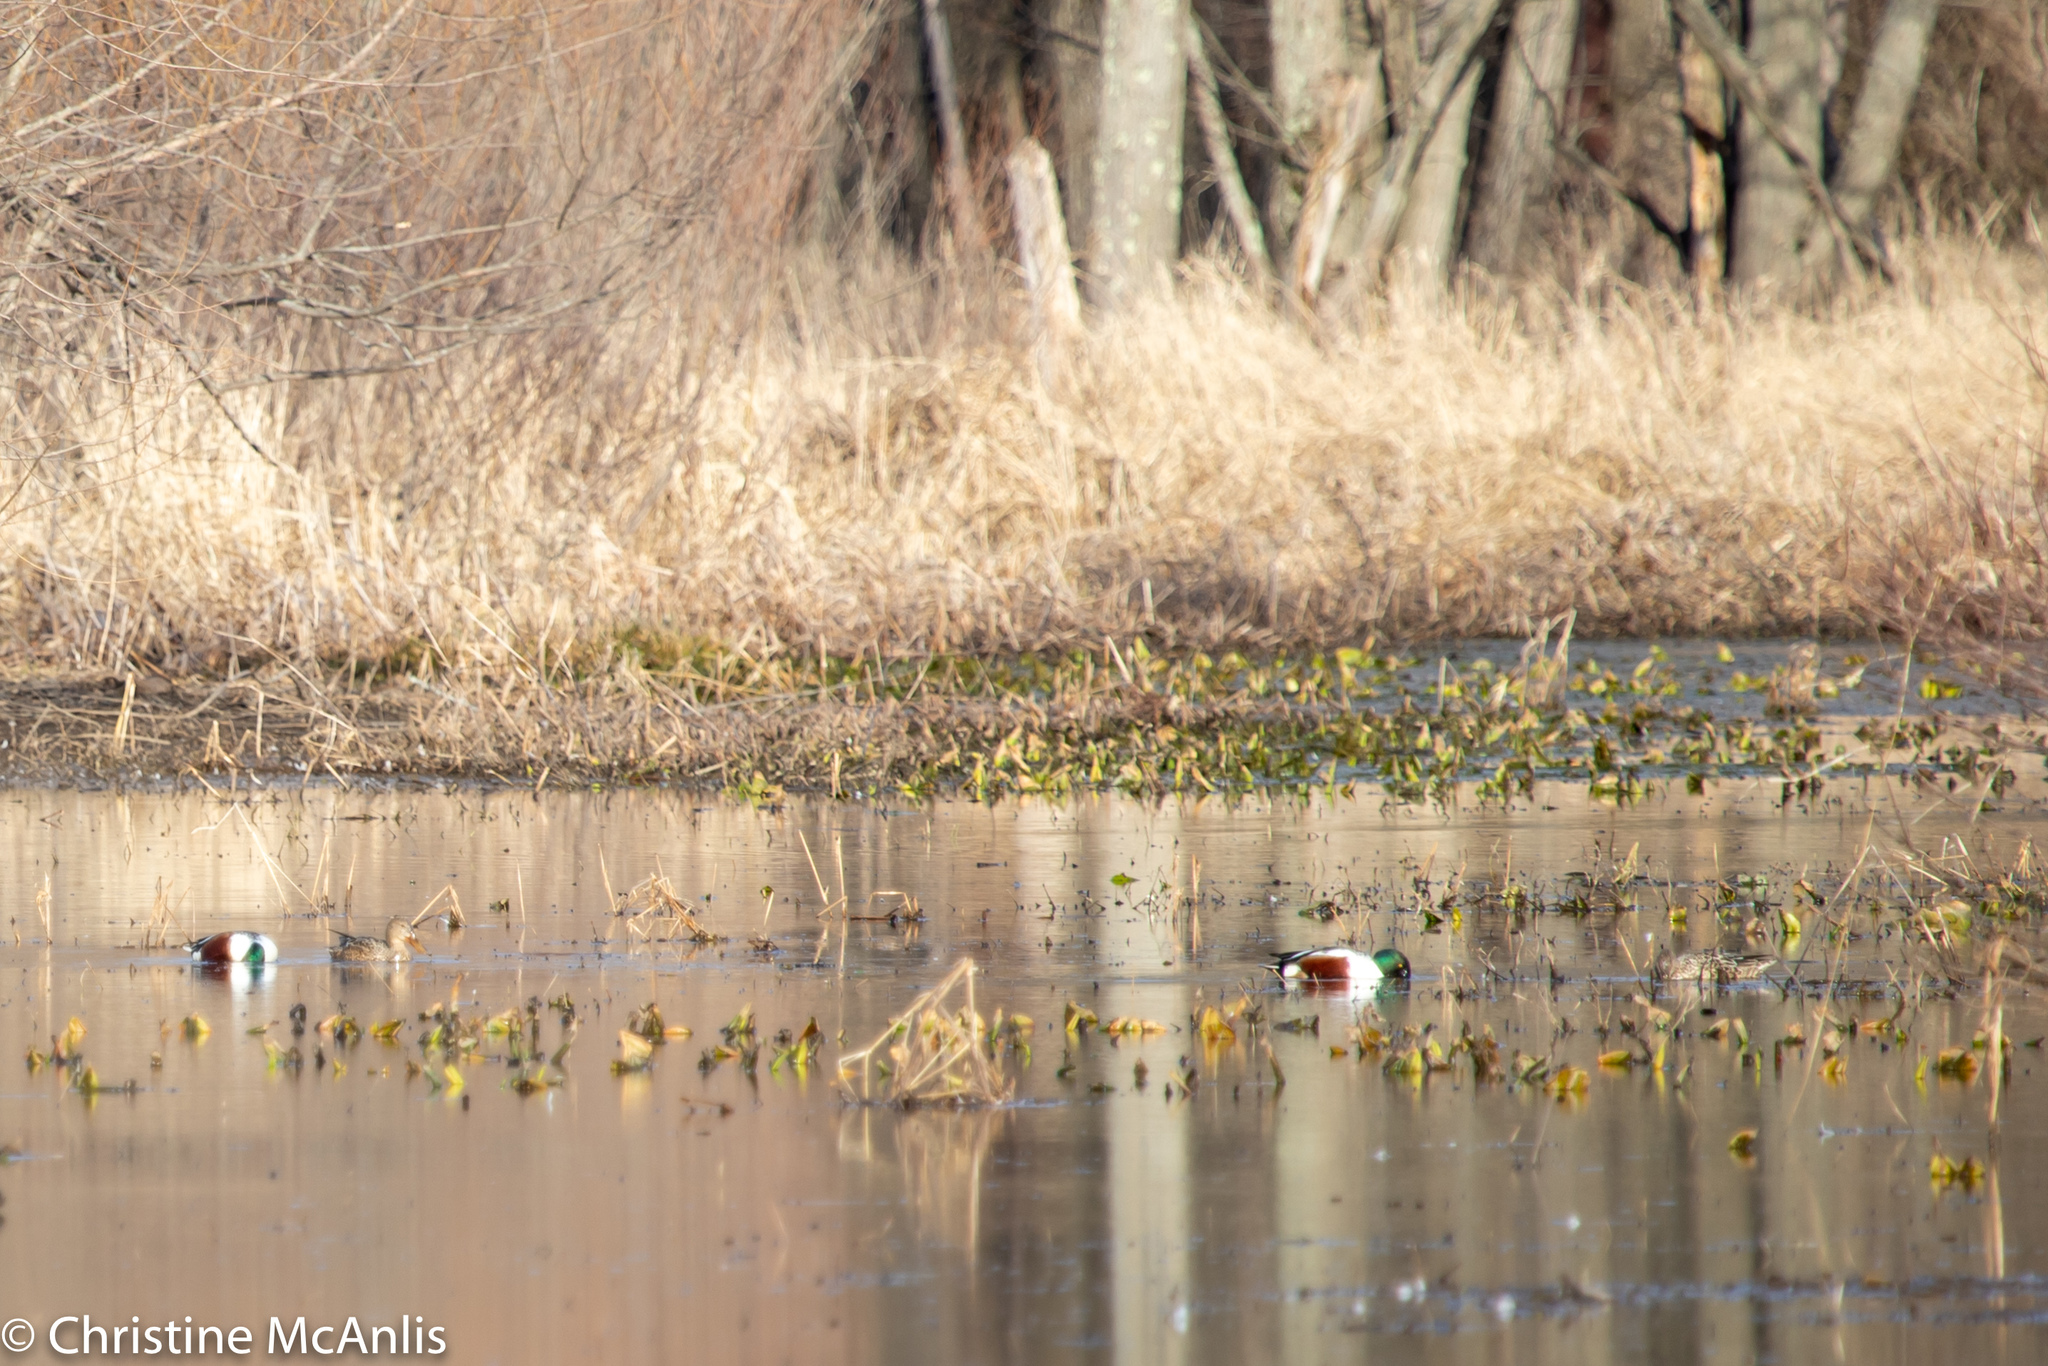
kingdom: Animalia
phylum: Chordata
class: Aves
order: Anseriformes
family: Anatidae
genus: Spatula
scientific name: Spatula clypeata
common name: Northern shoveler
